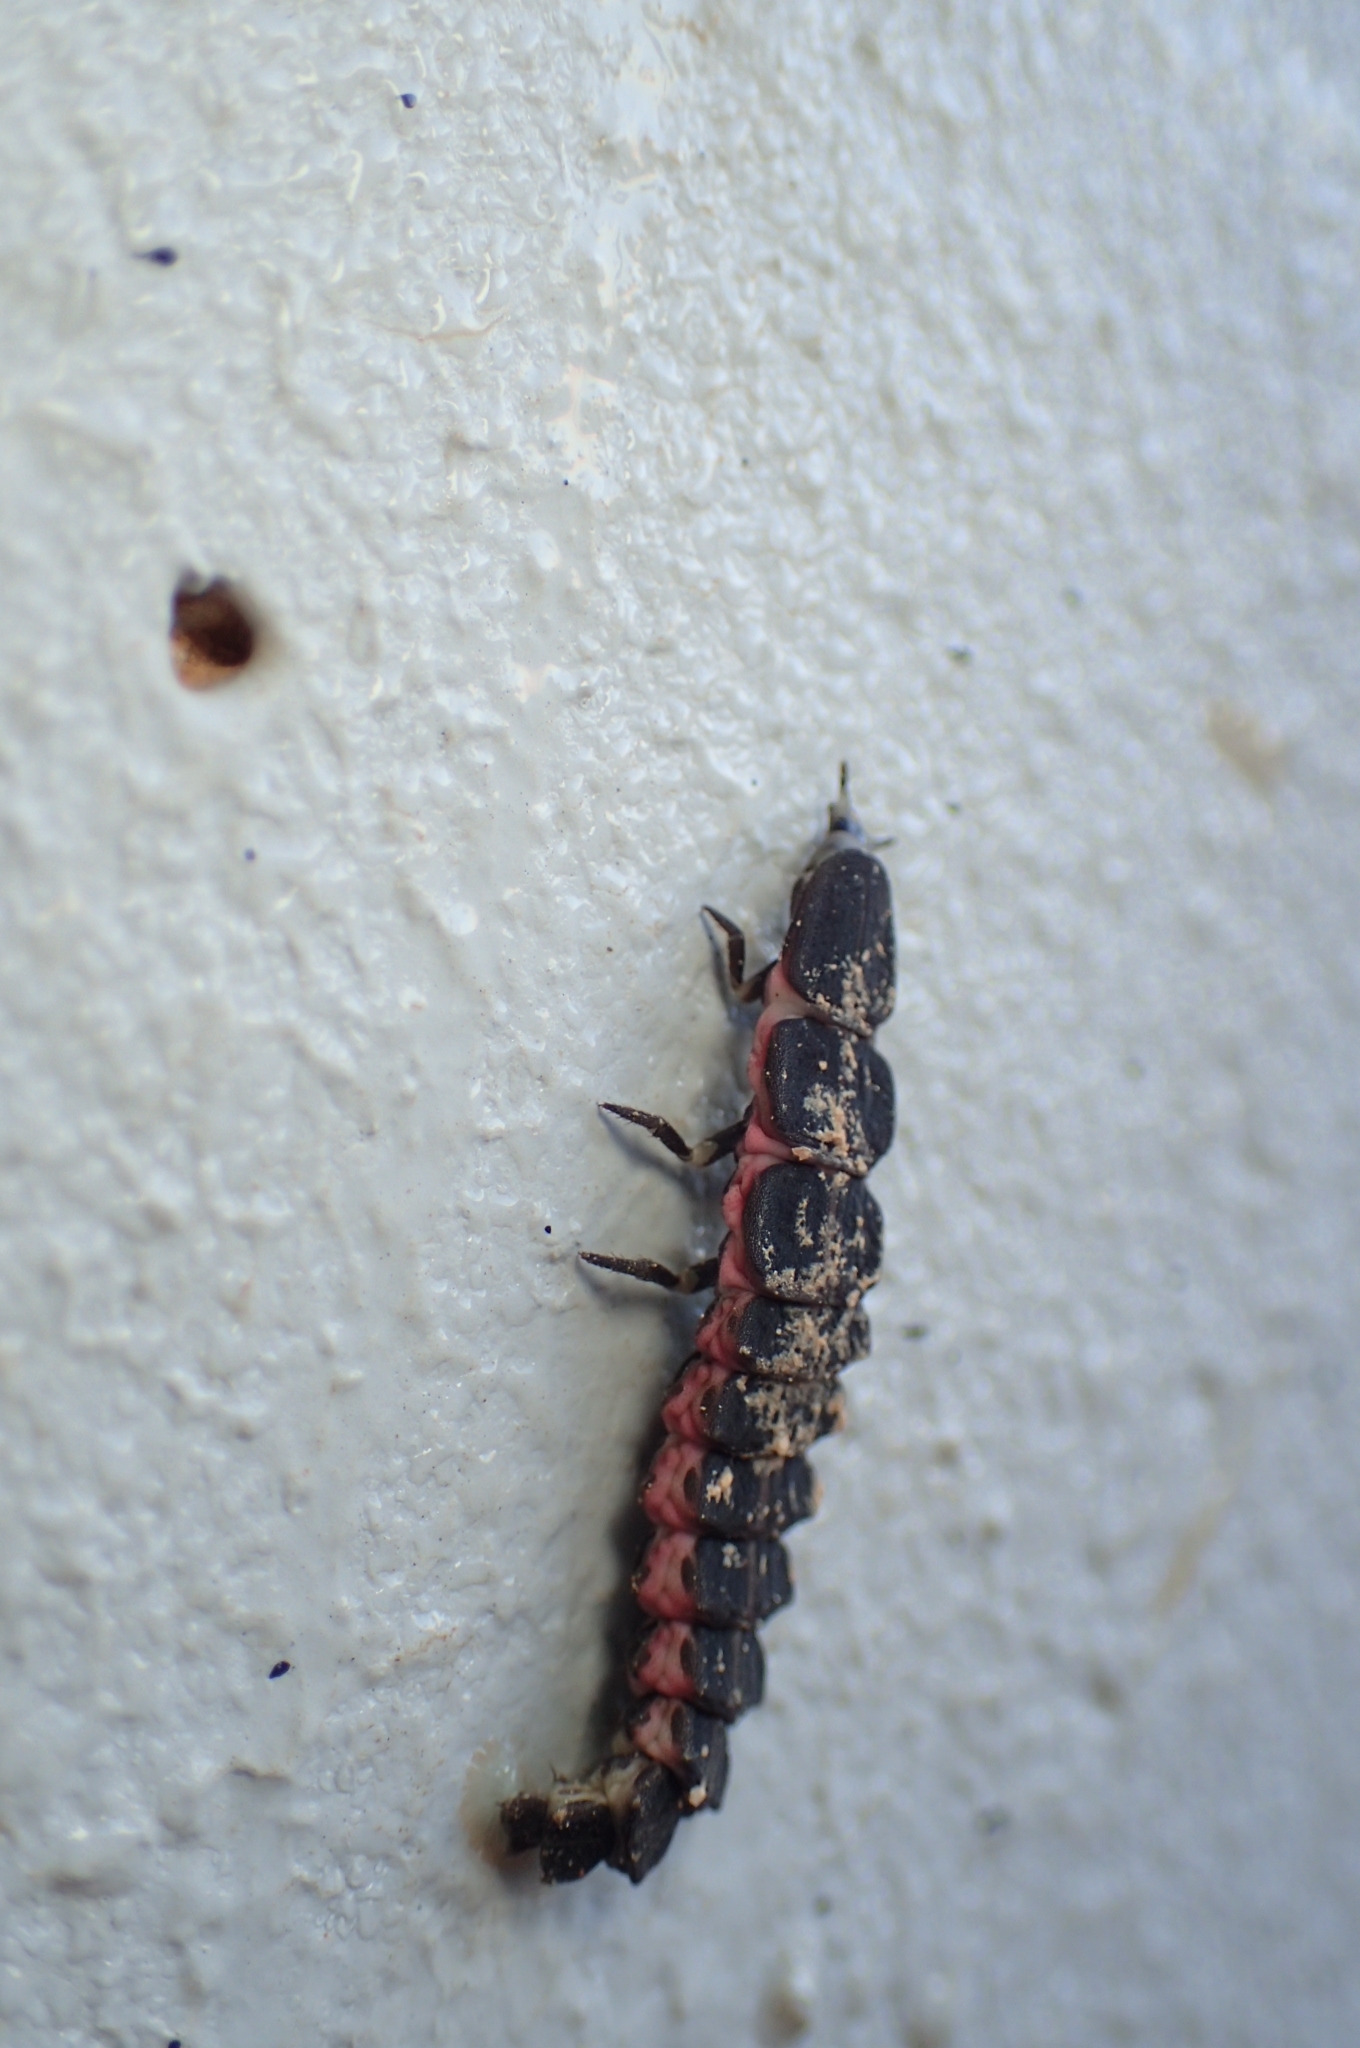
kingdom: Animalia
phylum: Arthropoda
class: Insecta
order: Coleoptera
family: Lampyridae
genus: Nyctophila
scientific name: Nyctophila reichii
